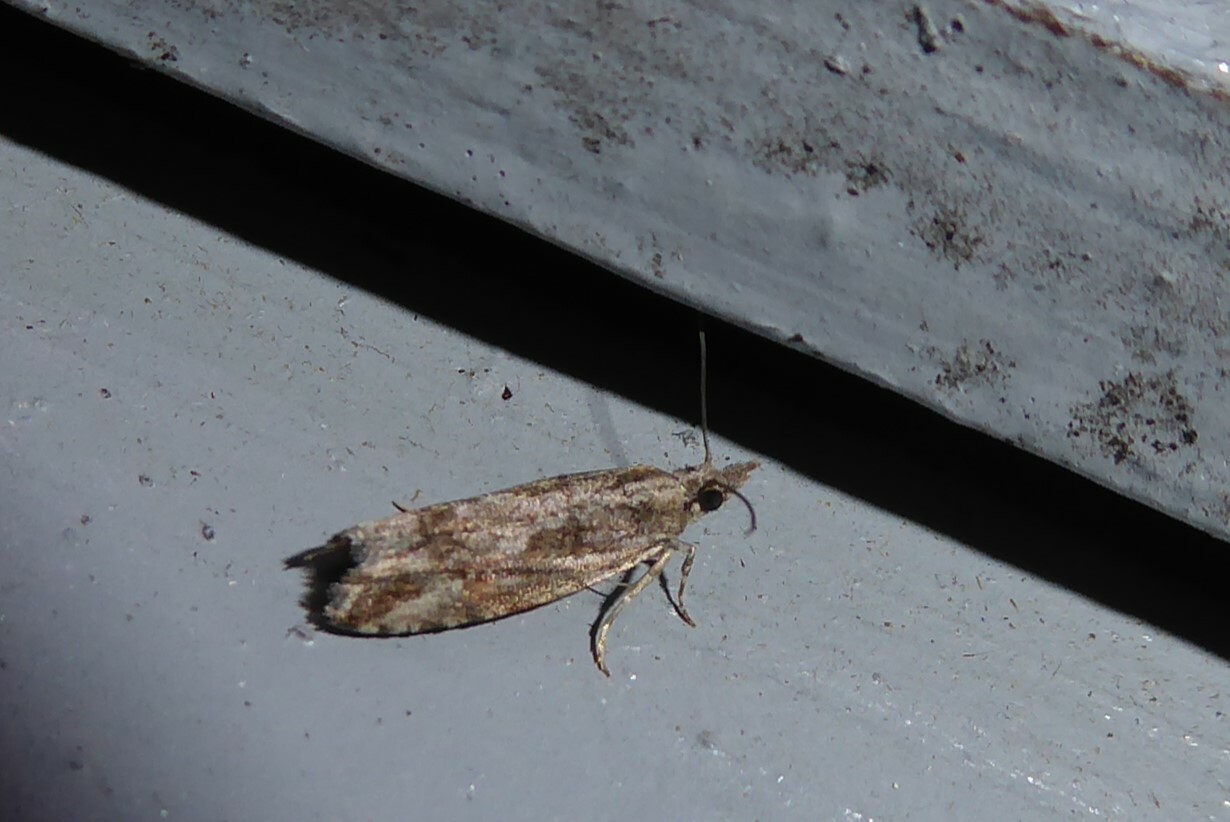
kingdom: Animalia
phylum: Arthropoda
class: Insecta
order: Lepidoptera
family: Tortricidae
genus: Strepsicrates
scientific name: Strepsicrates ejectana
